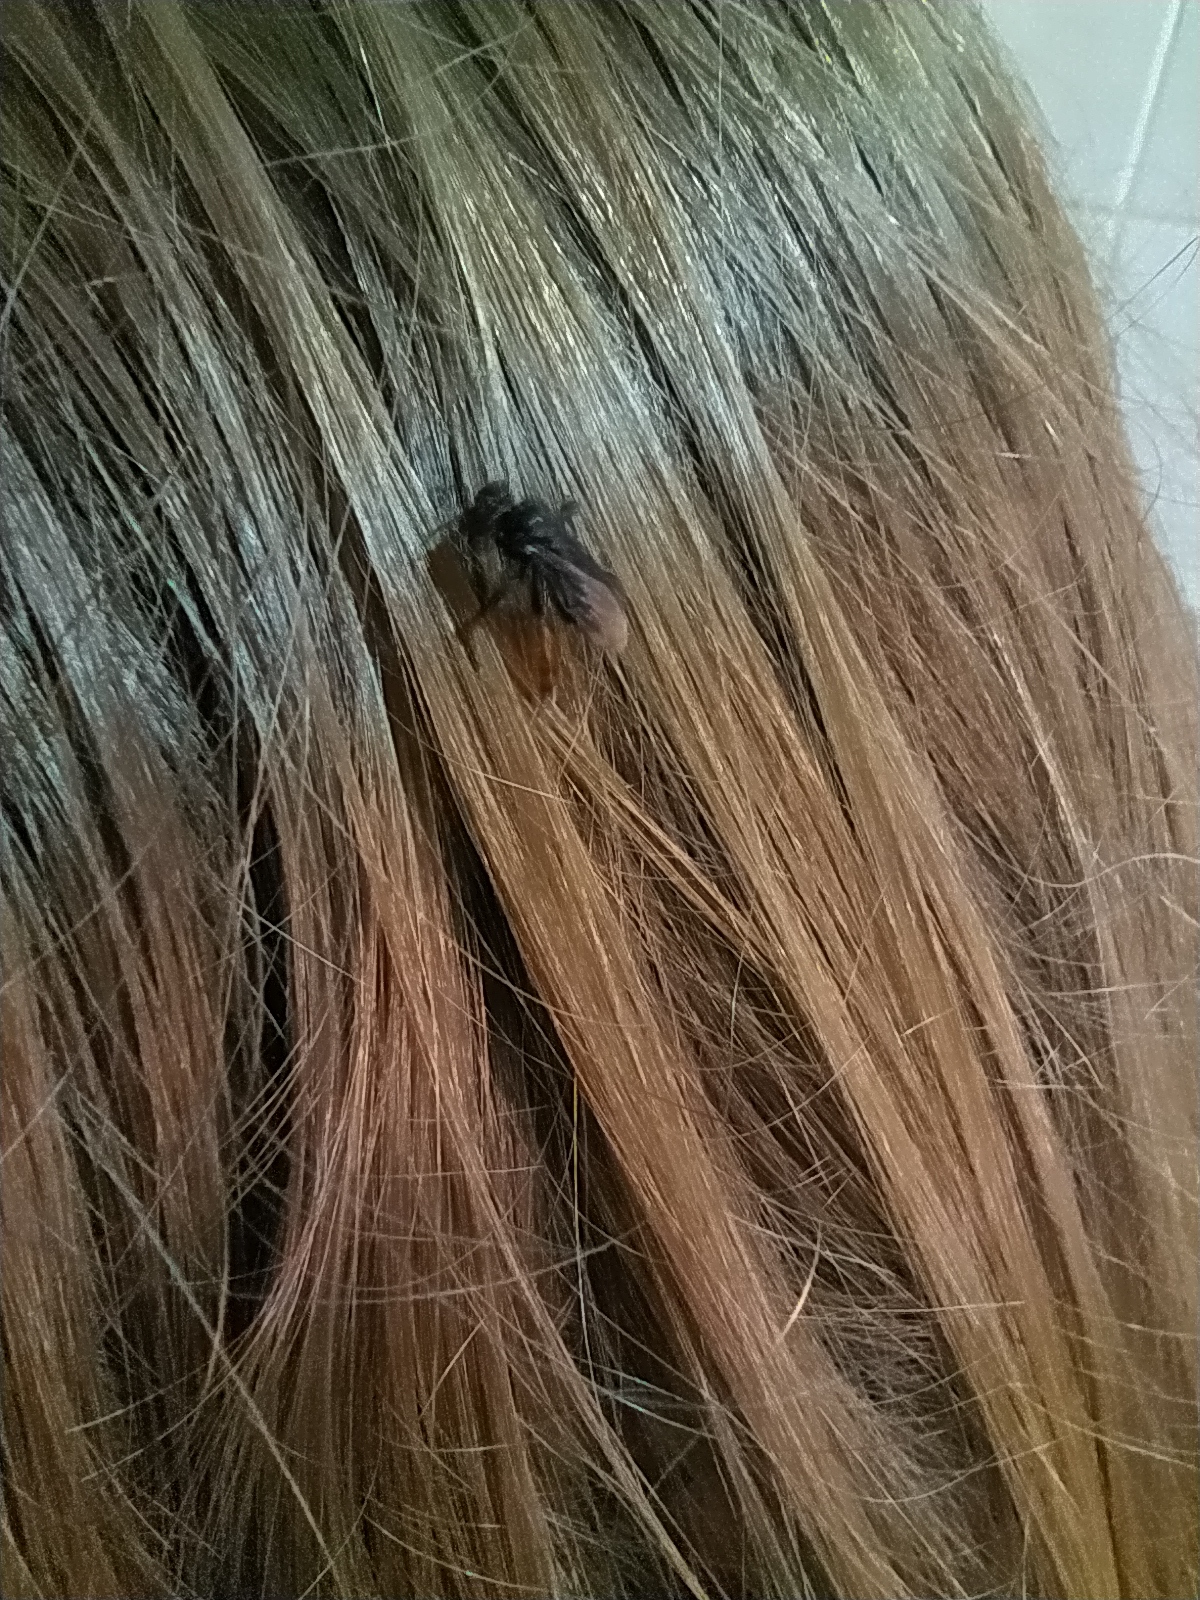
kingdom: Animalia
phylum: Arthropoda
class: Insecta
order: Hymenoptera
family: Apidae
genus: Trigona
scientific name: Trigona spinipes
